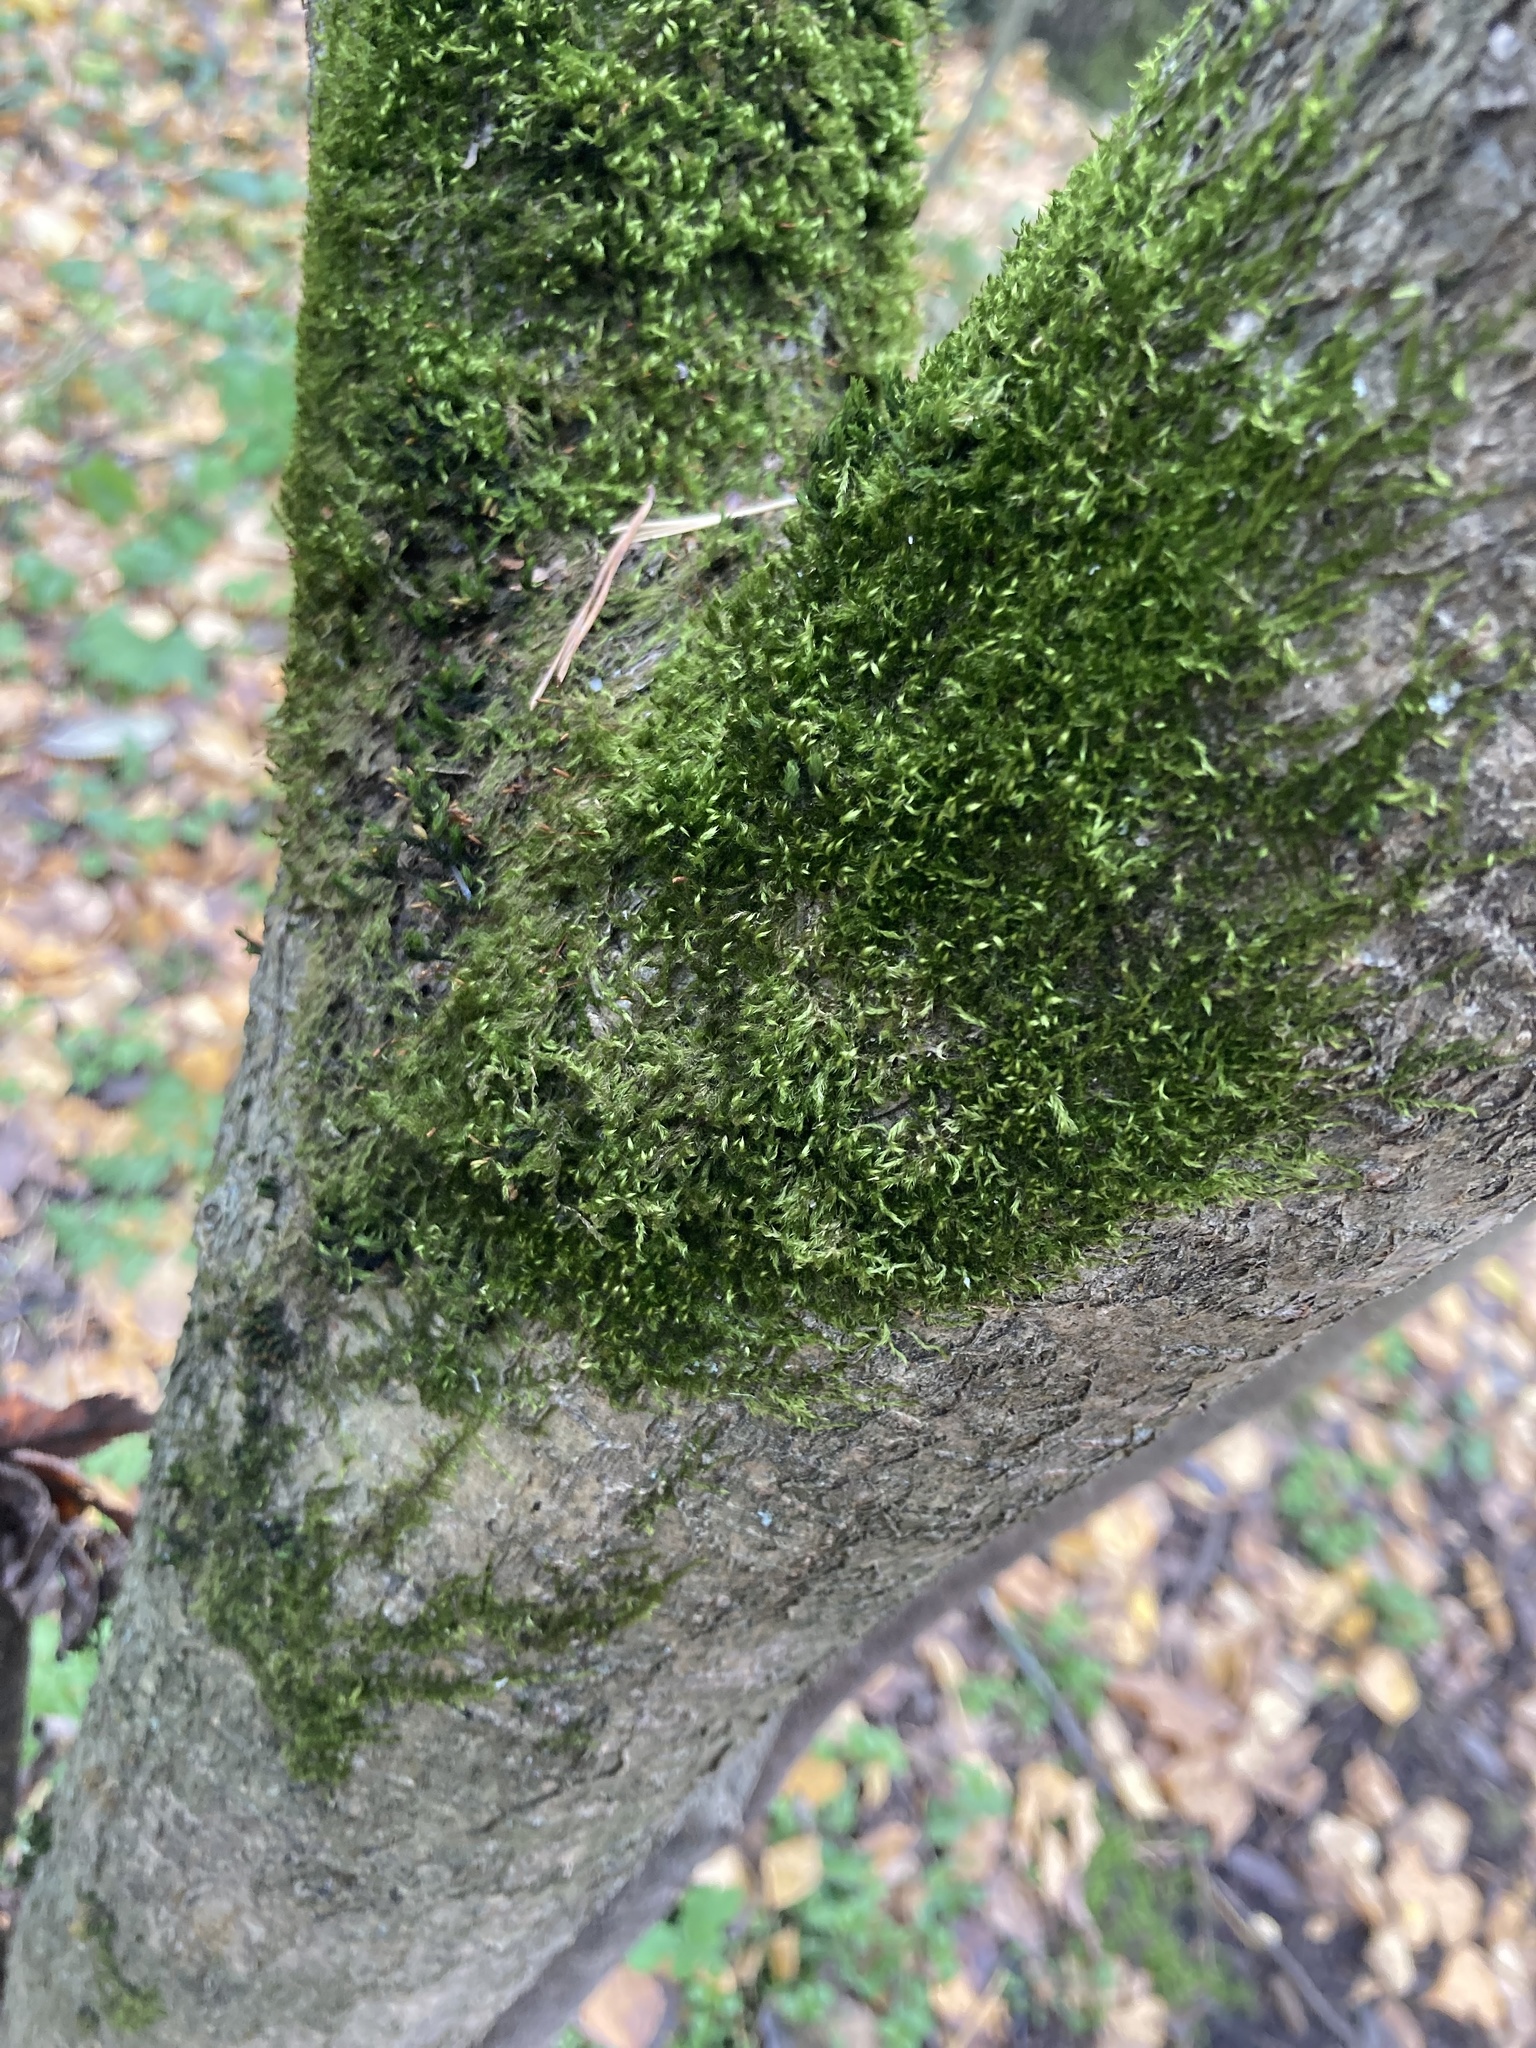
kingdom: Plantae
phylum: Bryophyta
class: Bryopsida
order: Hypnales
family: Pylaisiaceae
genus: Pylaisia
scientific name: Pylaisia polyantha
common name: Many-flowered leskea
